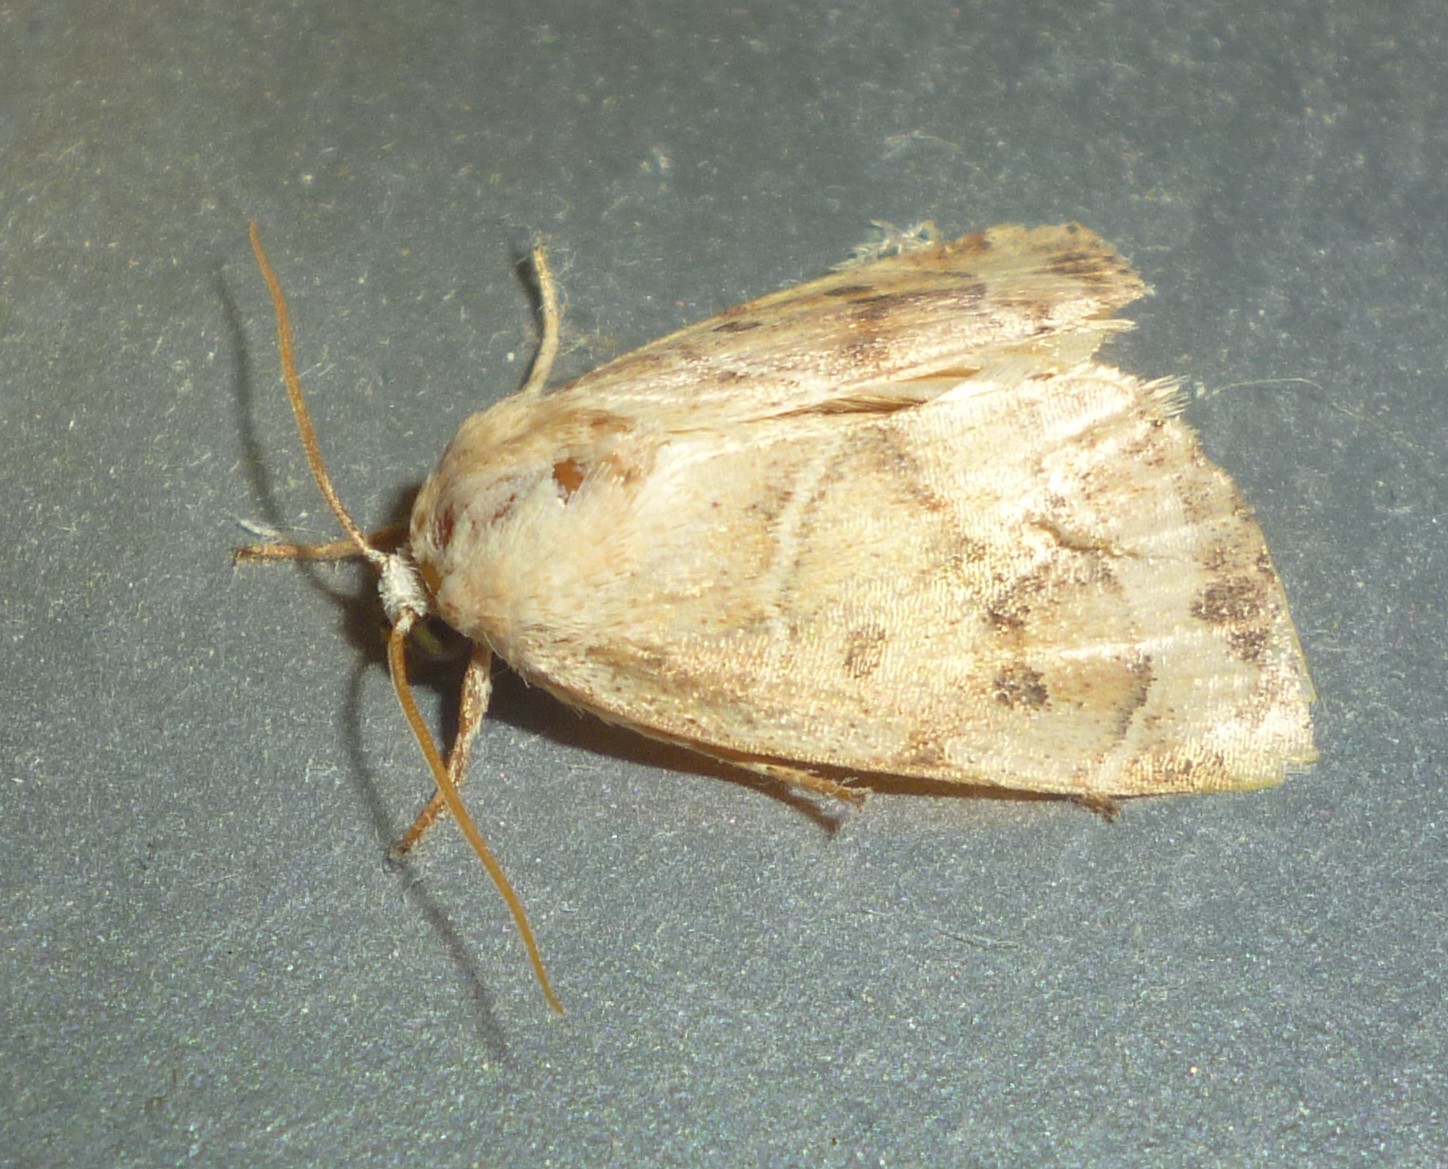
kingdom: Animalia
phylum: Arthropoda
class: Insecta
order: Lepidoptera
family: Noctuidae
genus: Cosmia
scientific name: Cosmia calami
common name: American dun-bar moth
